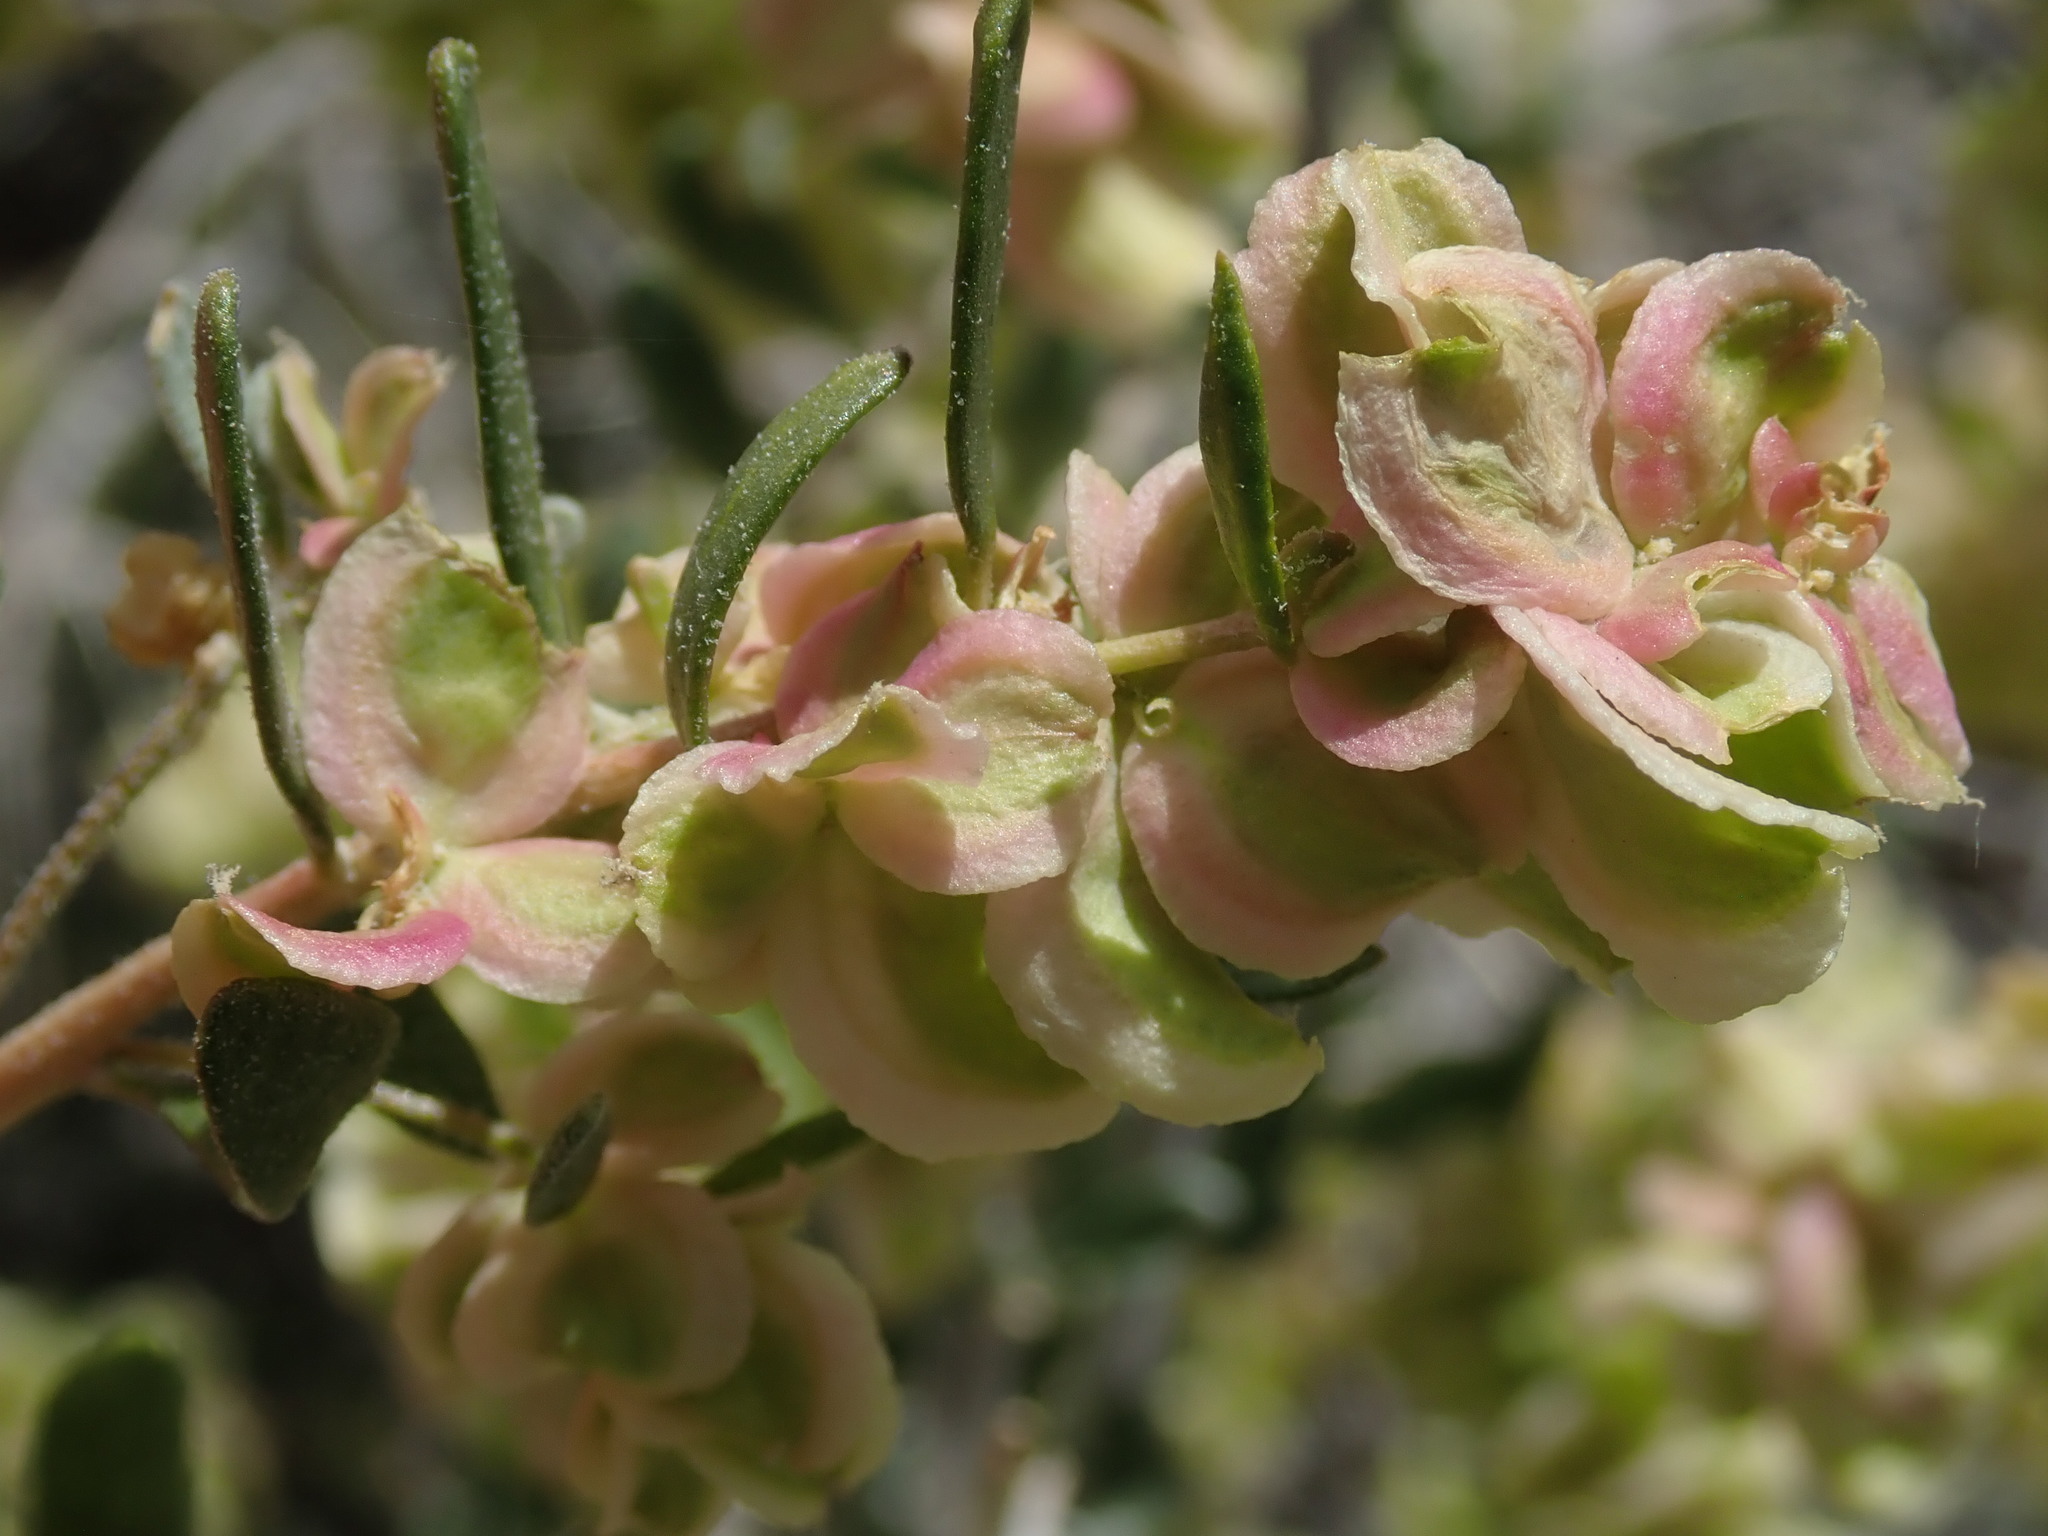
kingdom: Plantae
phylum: Tracheophyta
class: Magnoliopsida
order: Caryophyllales
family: Amaranthaceae
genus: Grayia
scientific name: Grayia spinosa
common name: Spiny hopsage
